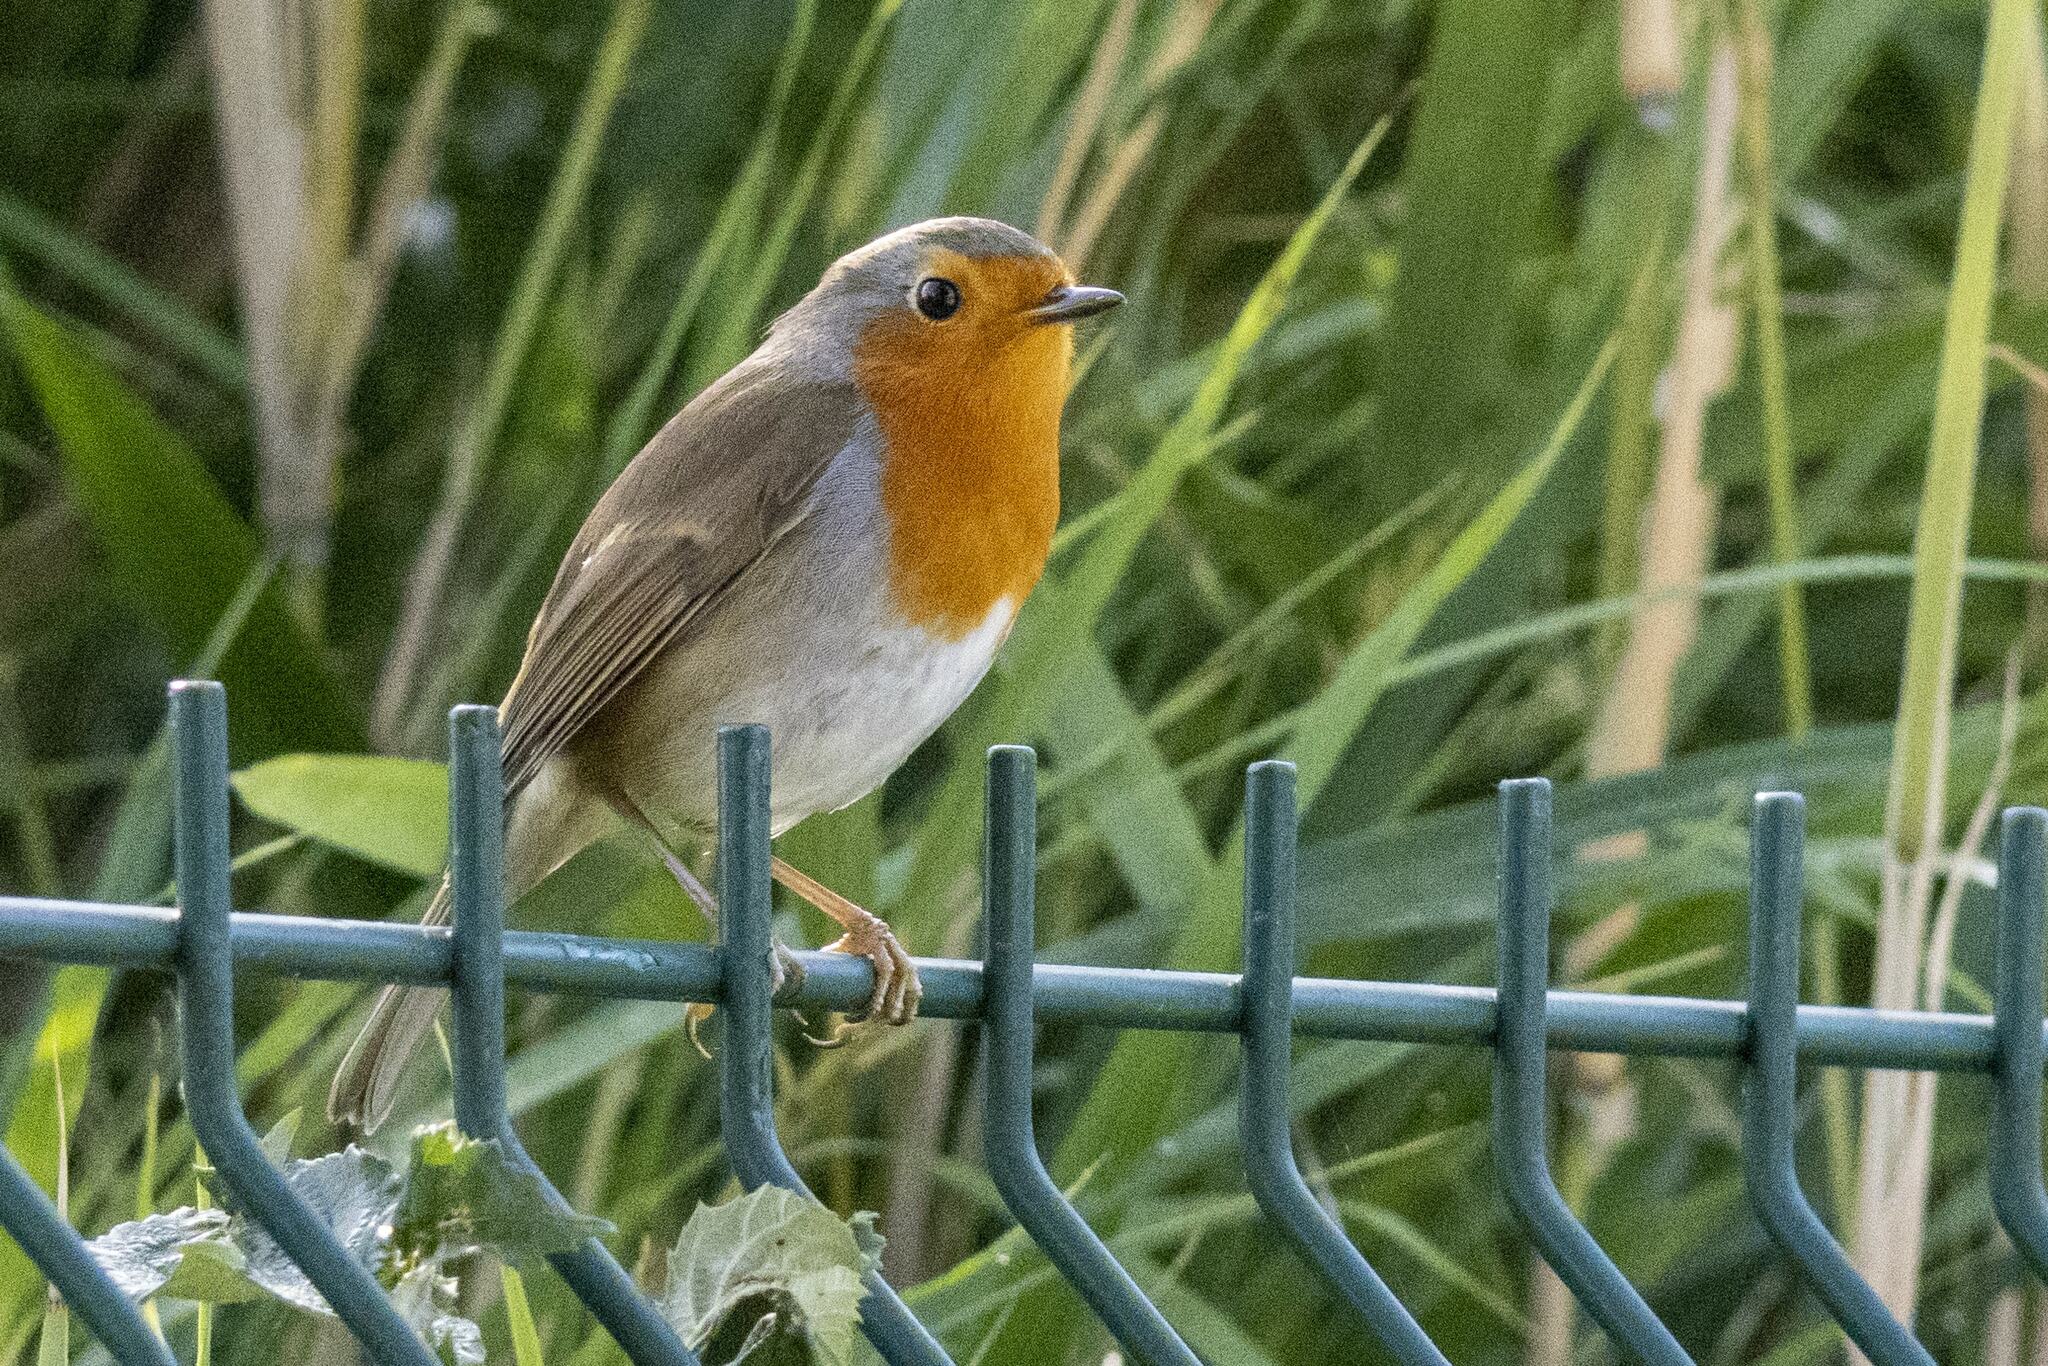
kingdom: Animalia
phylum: Chordata
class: Aves
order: Passeriformes
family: Muscicapidae
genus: Erithacus
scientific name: Erithacus rubecula
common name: European robin
